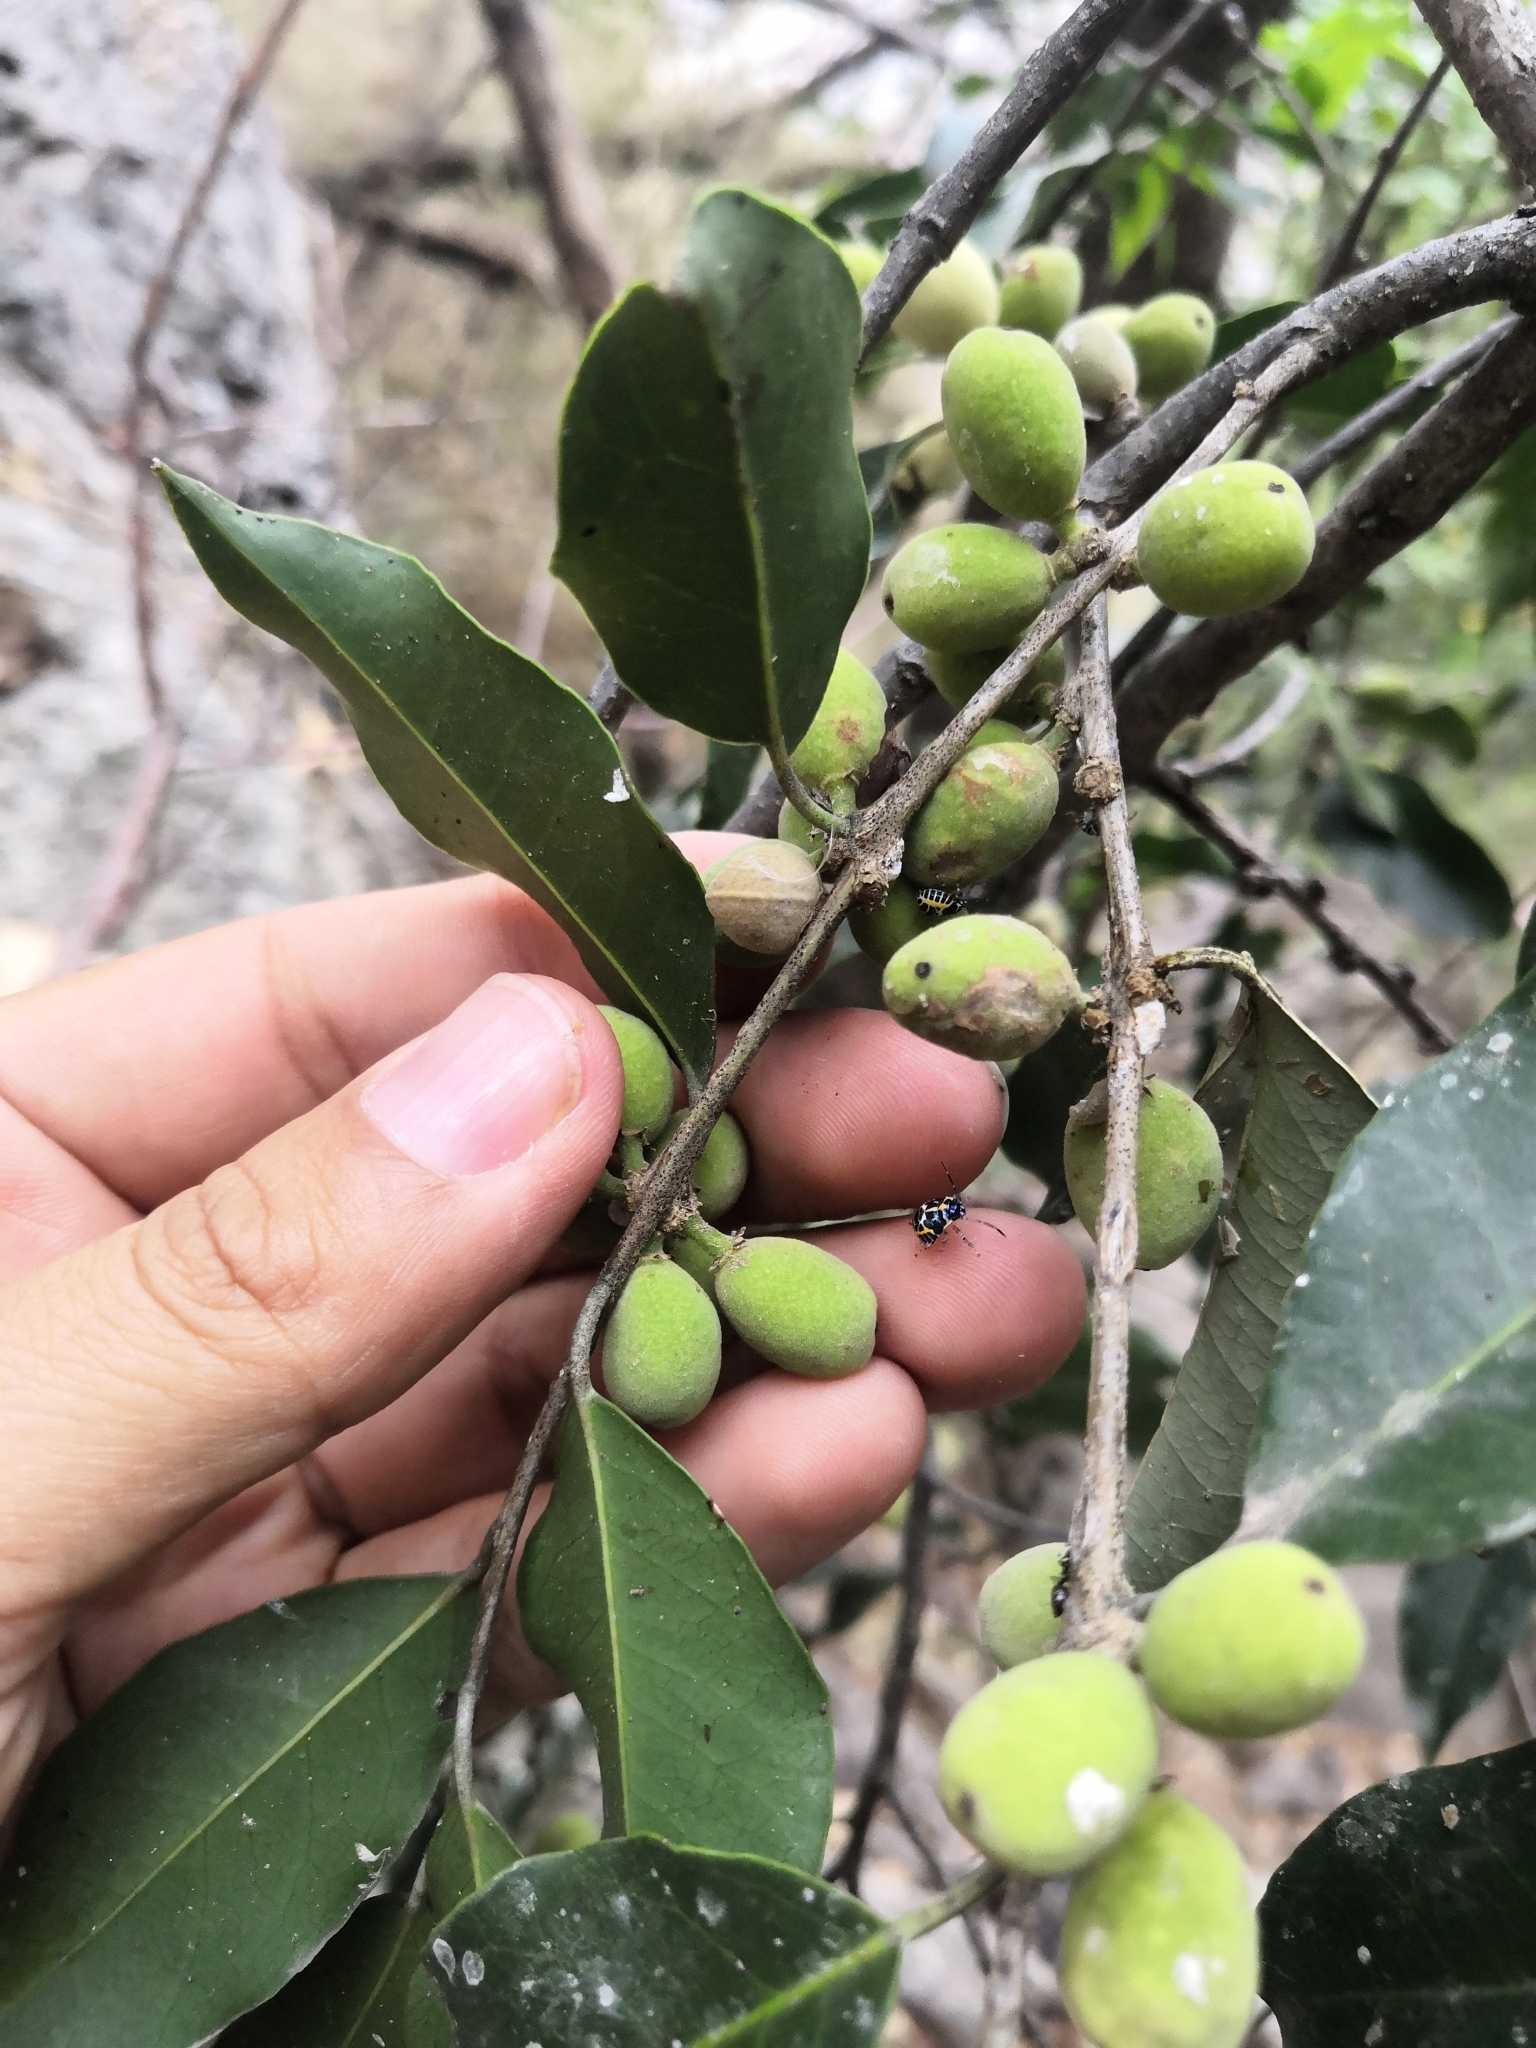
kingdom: Plantae
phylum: Tracheophyta
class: Magnoliopsida
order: Malpighiales
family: Putranjivaceae
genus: Drypetes
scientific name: Drypetes gentryi
